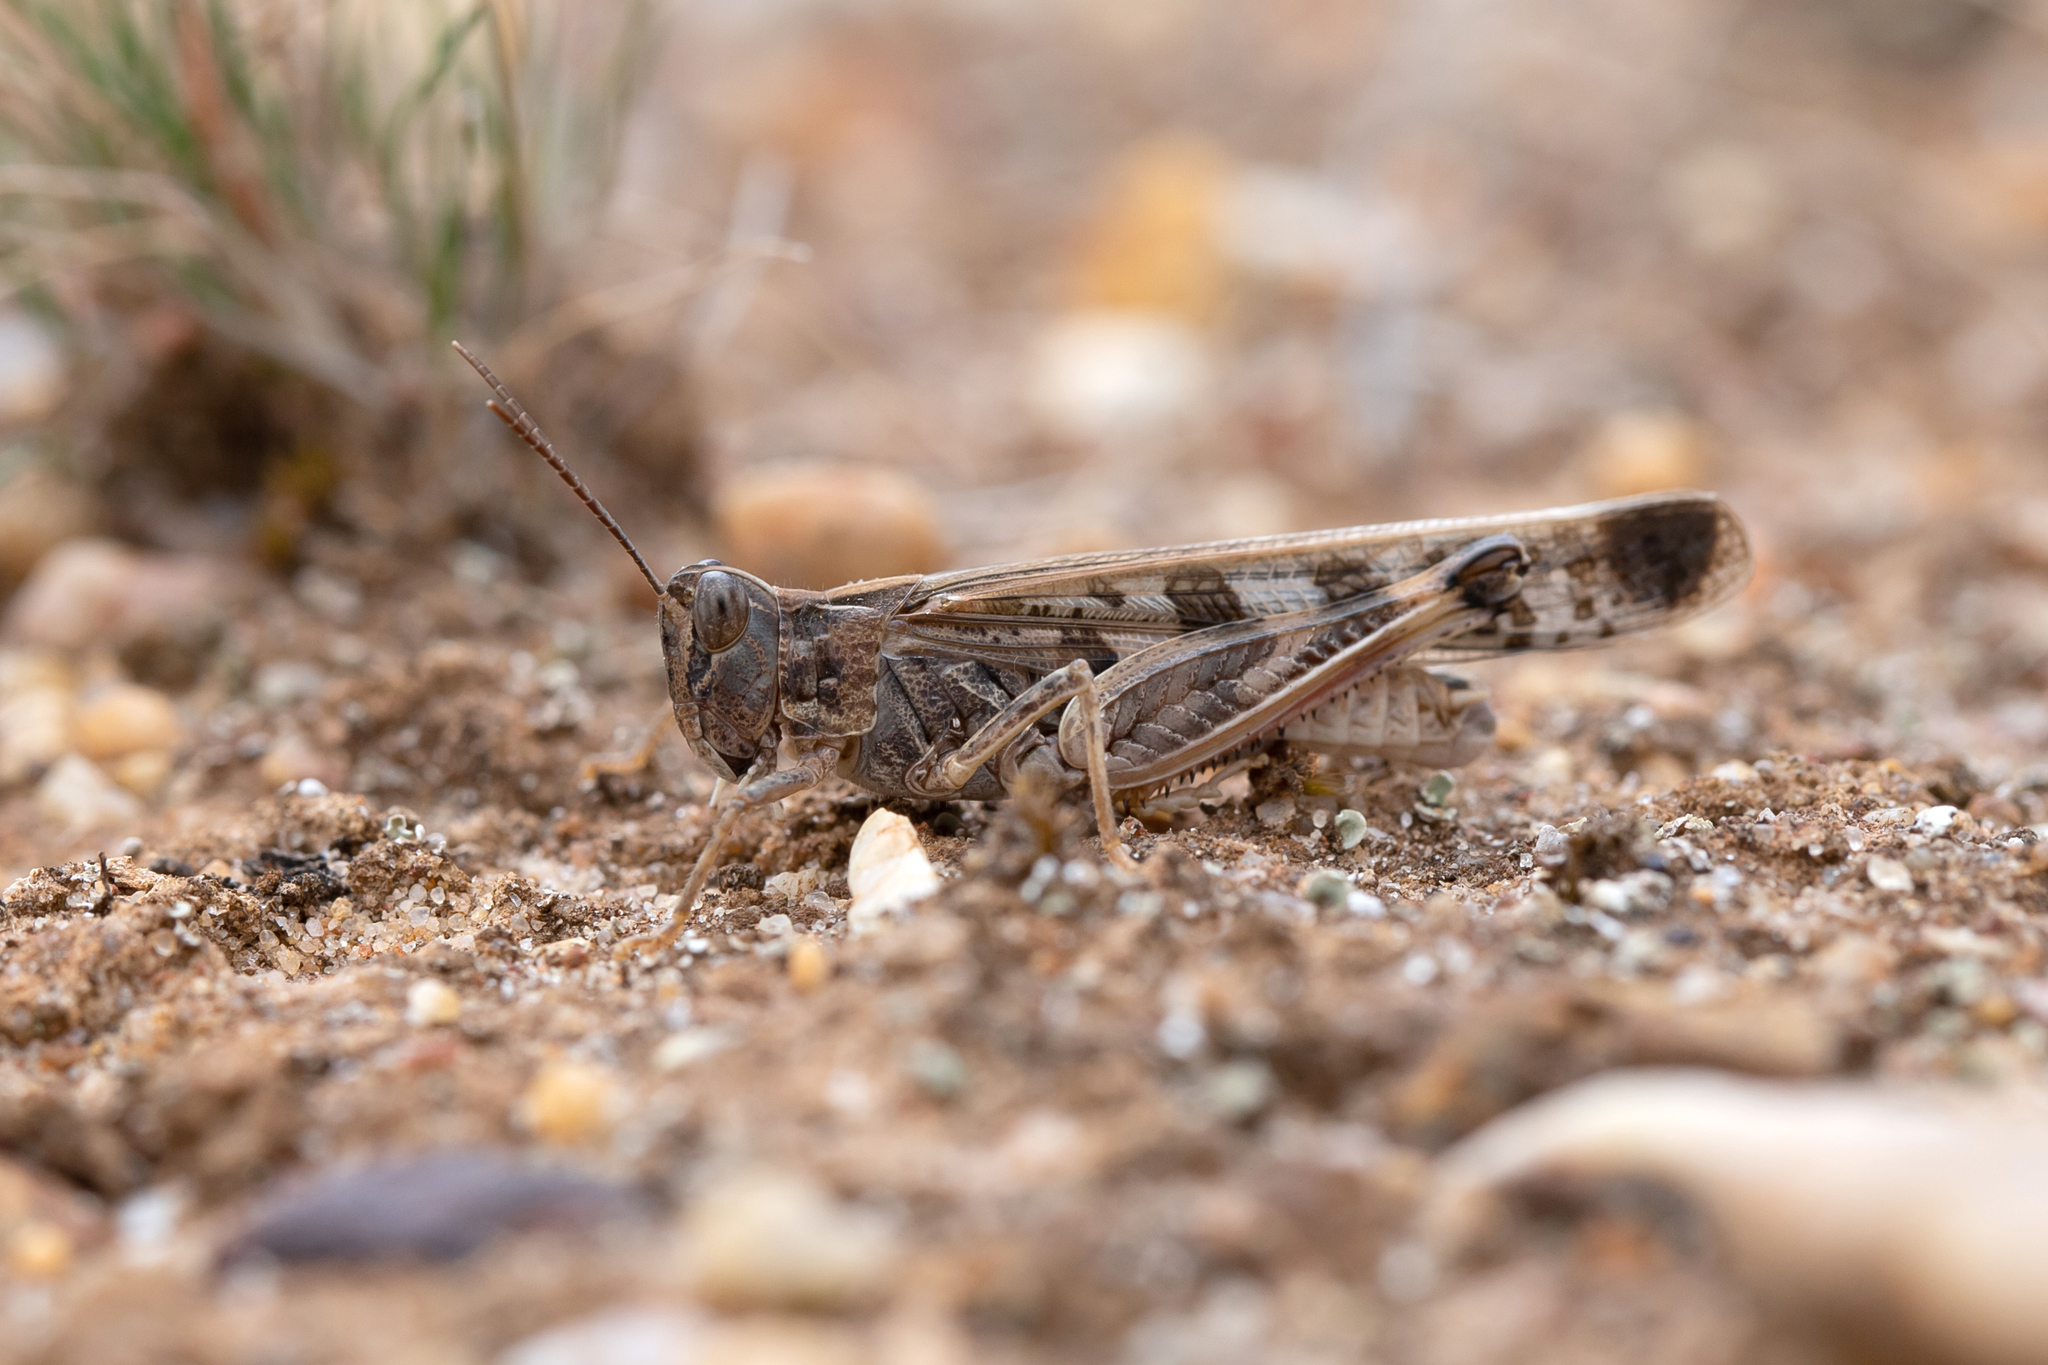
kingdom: Animalia
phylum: Arthropoda
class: Insecta
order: Orthoptera
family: Acrididae
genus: Chortoicetes
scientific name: Chortoicetes terminifera
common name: Australian plague locust
